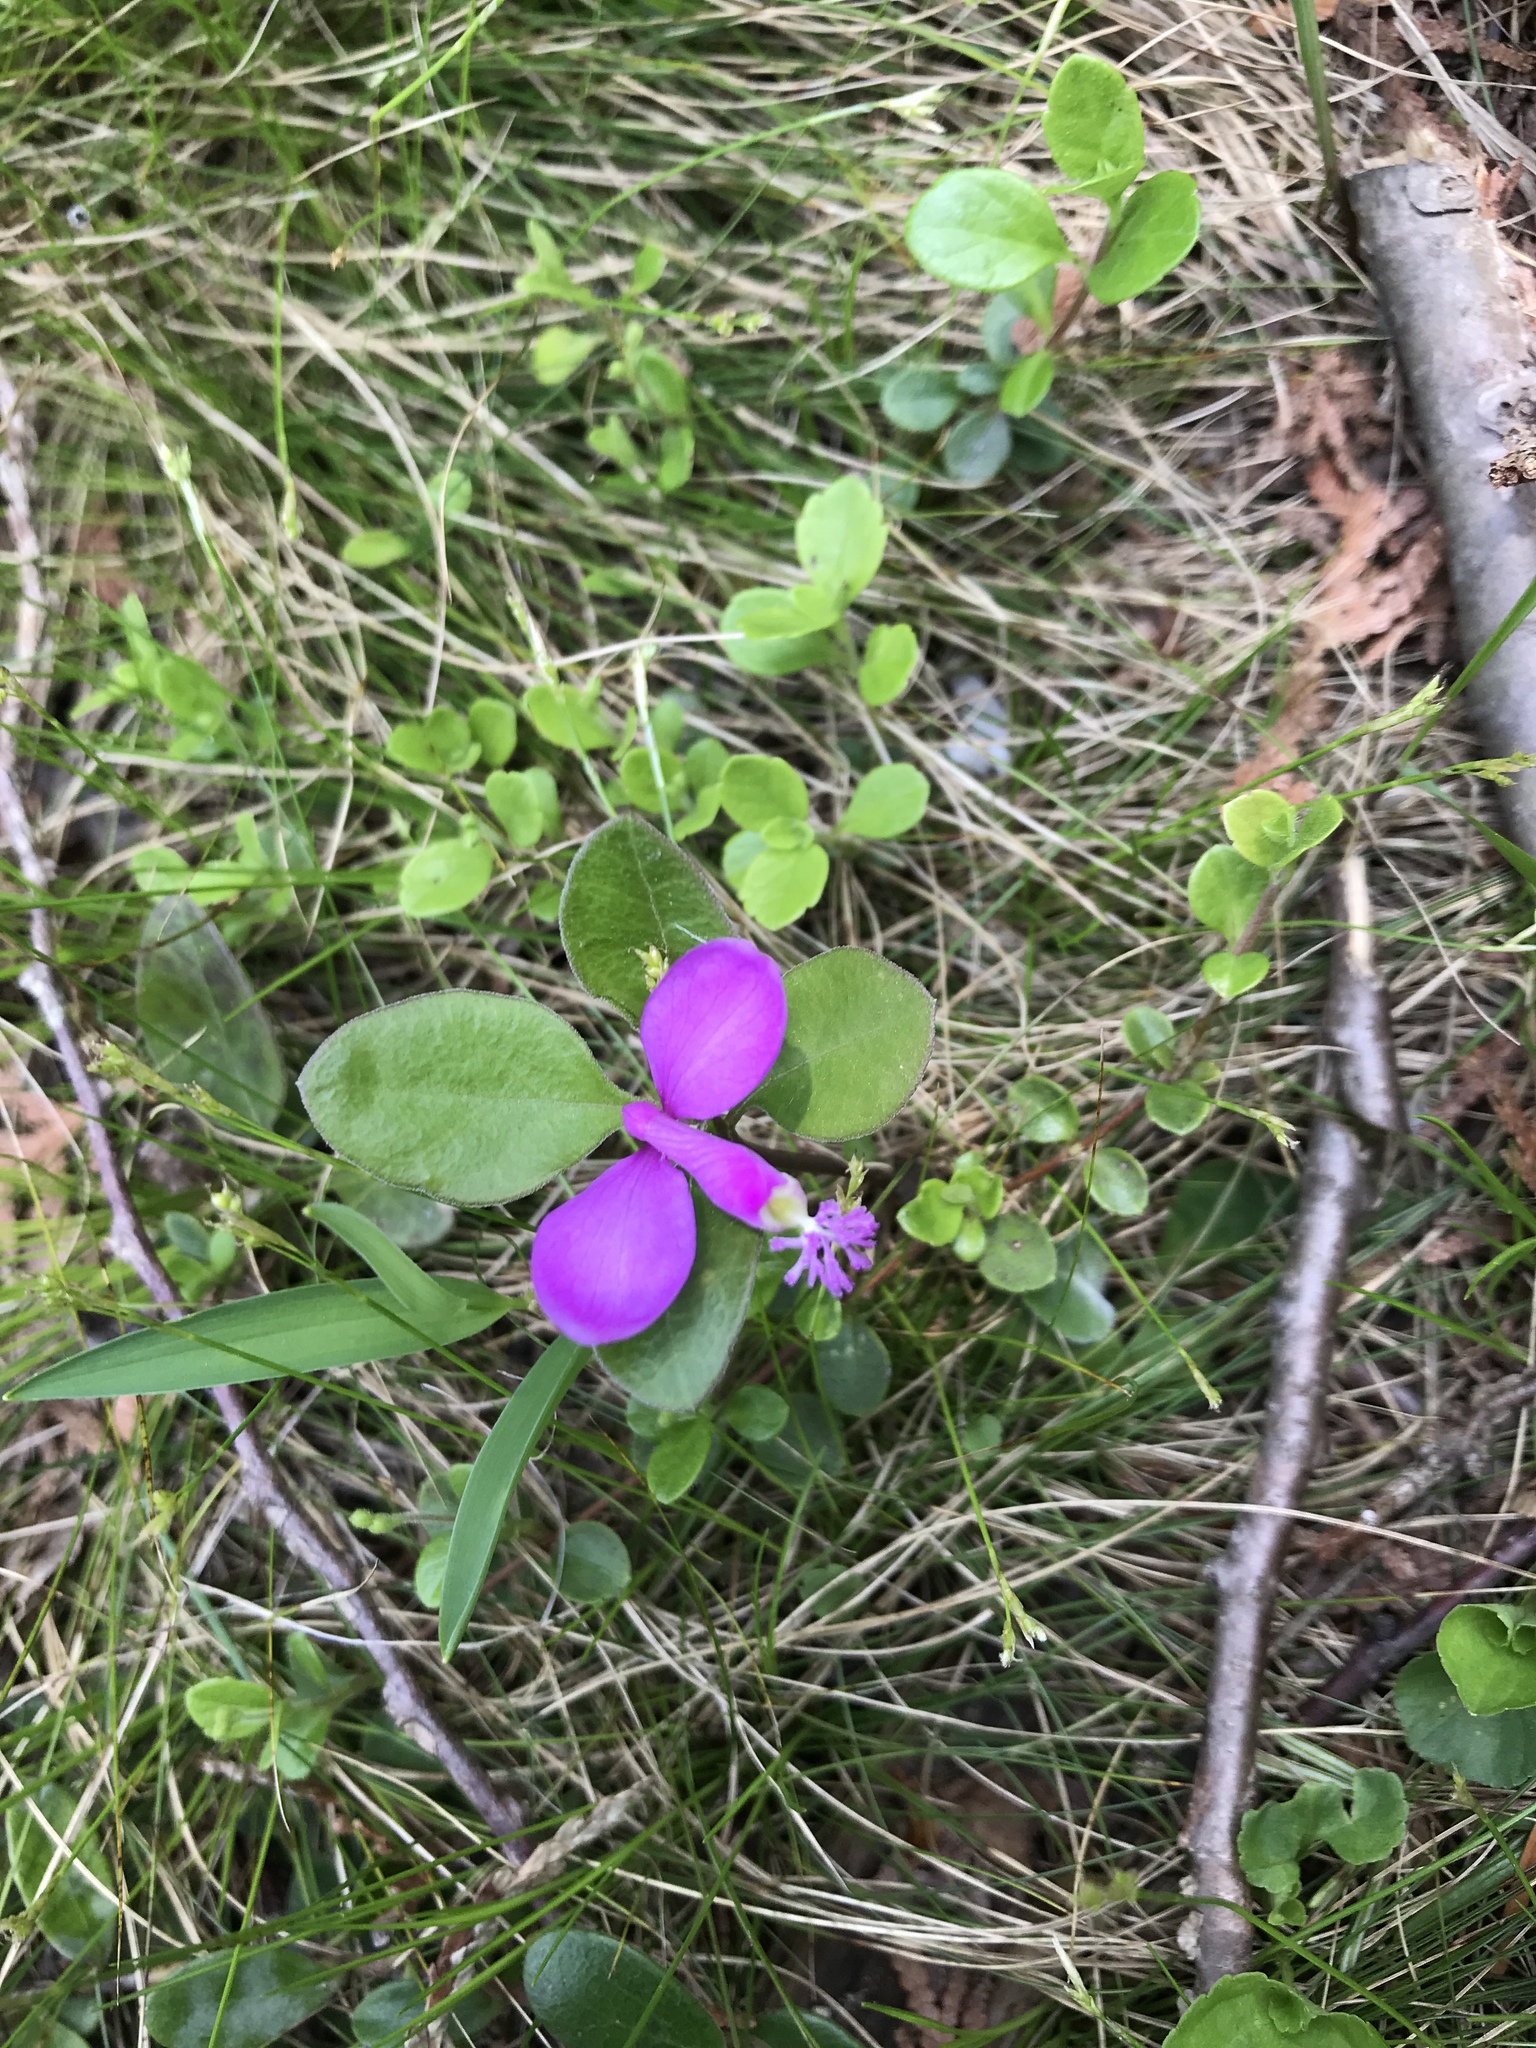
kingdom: Plantae
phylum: Tracheophyta
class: Magnoliopsida
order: Fabales
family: Polygalaceae
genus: Polygaloides
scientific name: Polygaloides paucifolia
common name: Bird-on-the-wing
